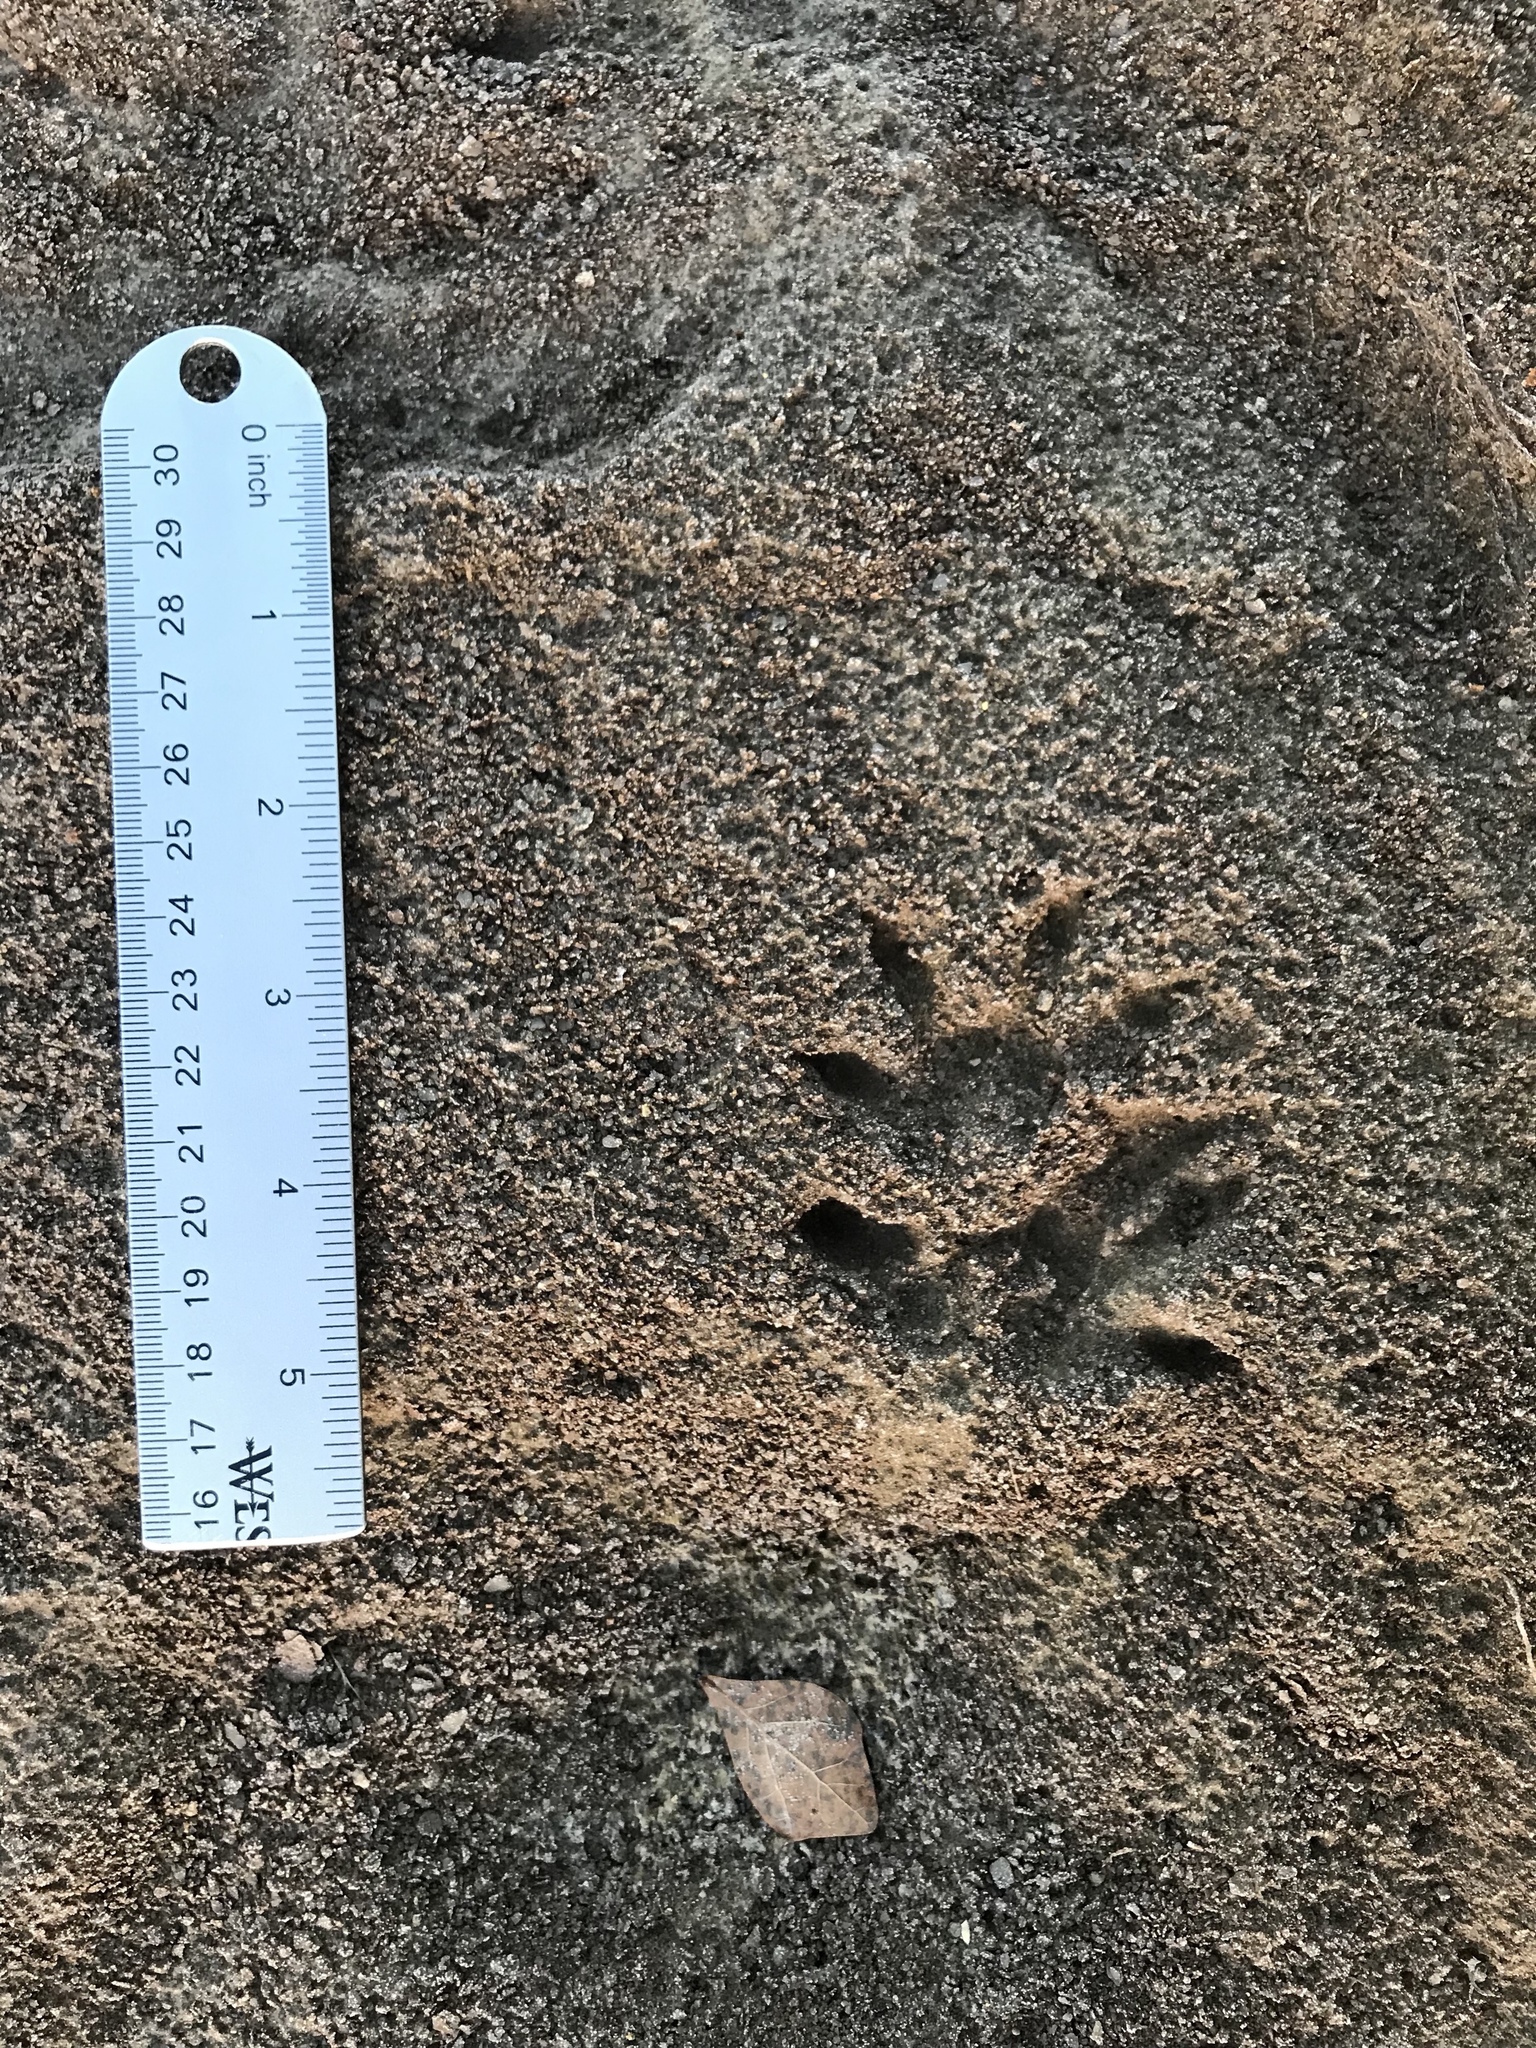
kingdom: Animalia
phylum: Chordata
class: Mammalia
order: Didelphimorphia
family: Didelphidae
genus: Didelphis
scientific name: Didelphis virginiana
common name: Virginia opossum
